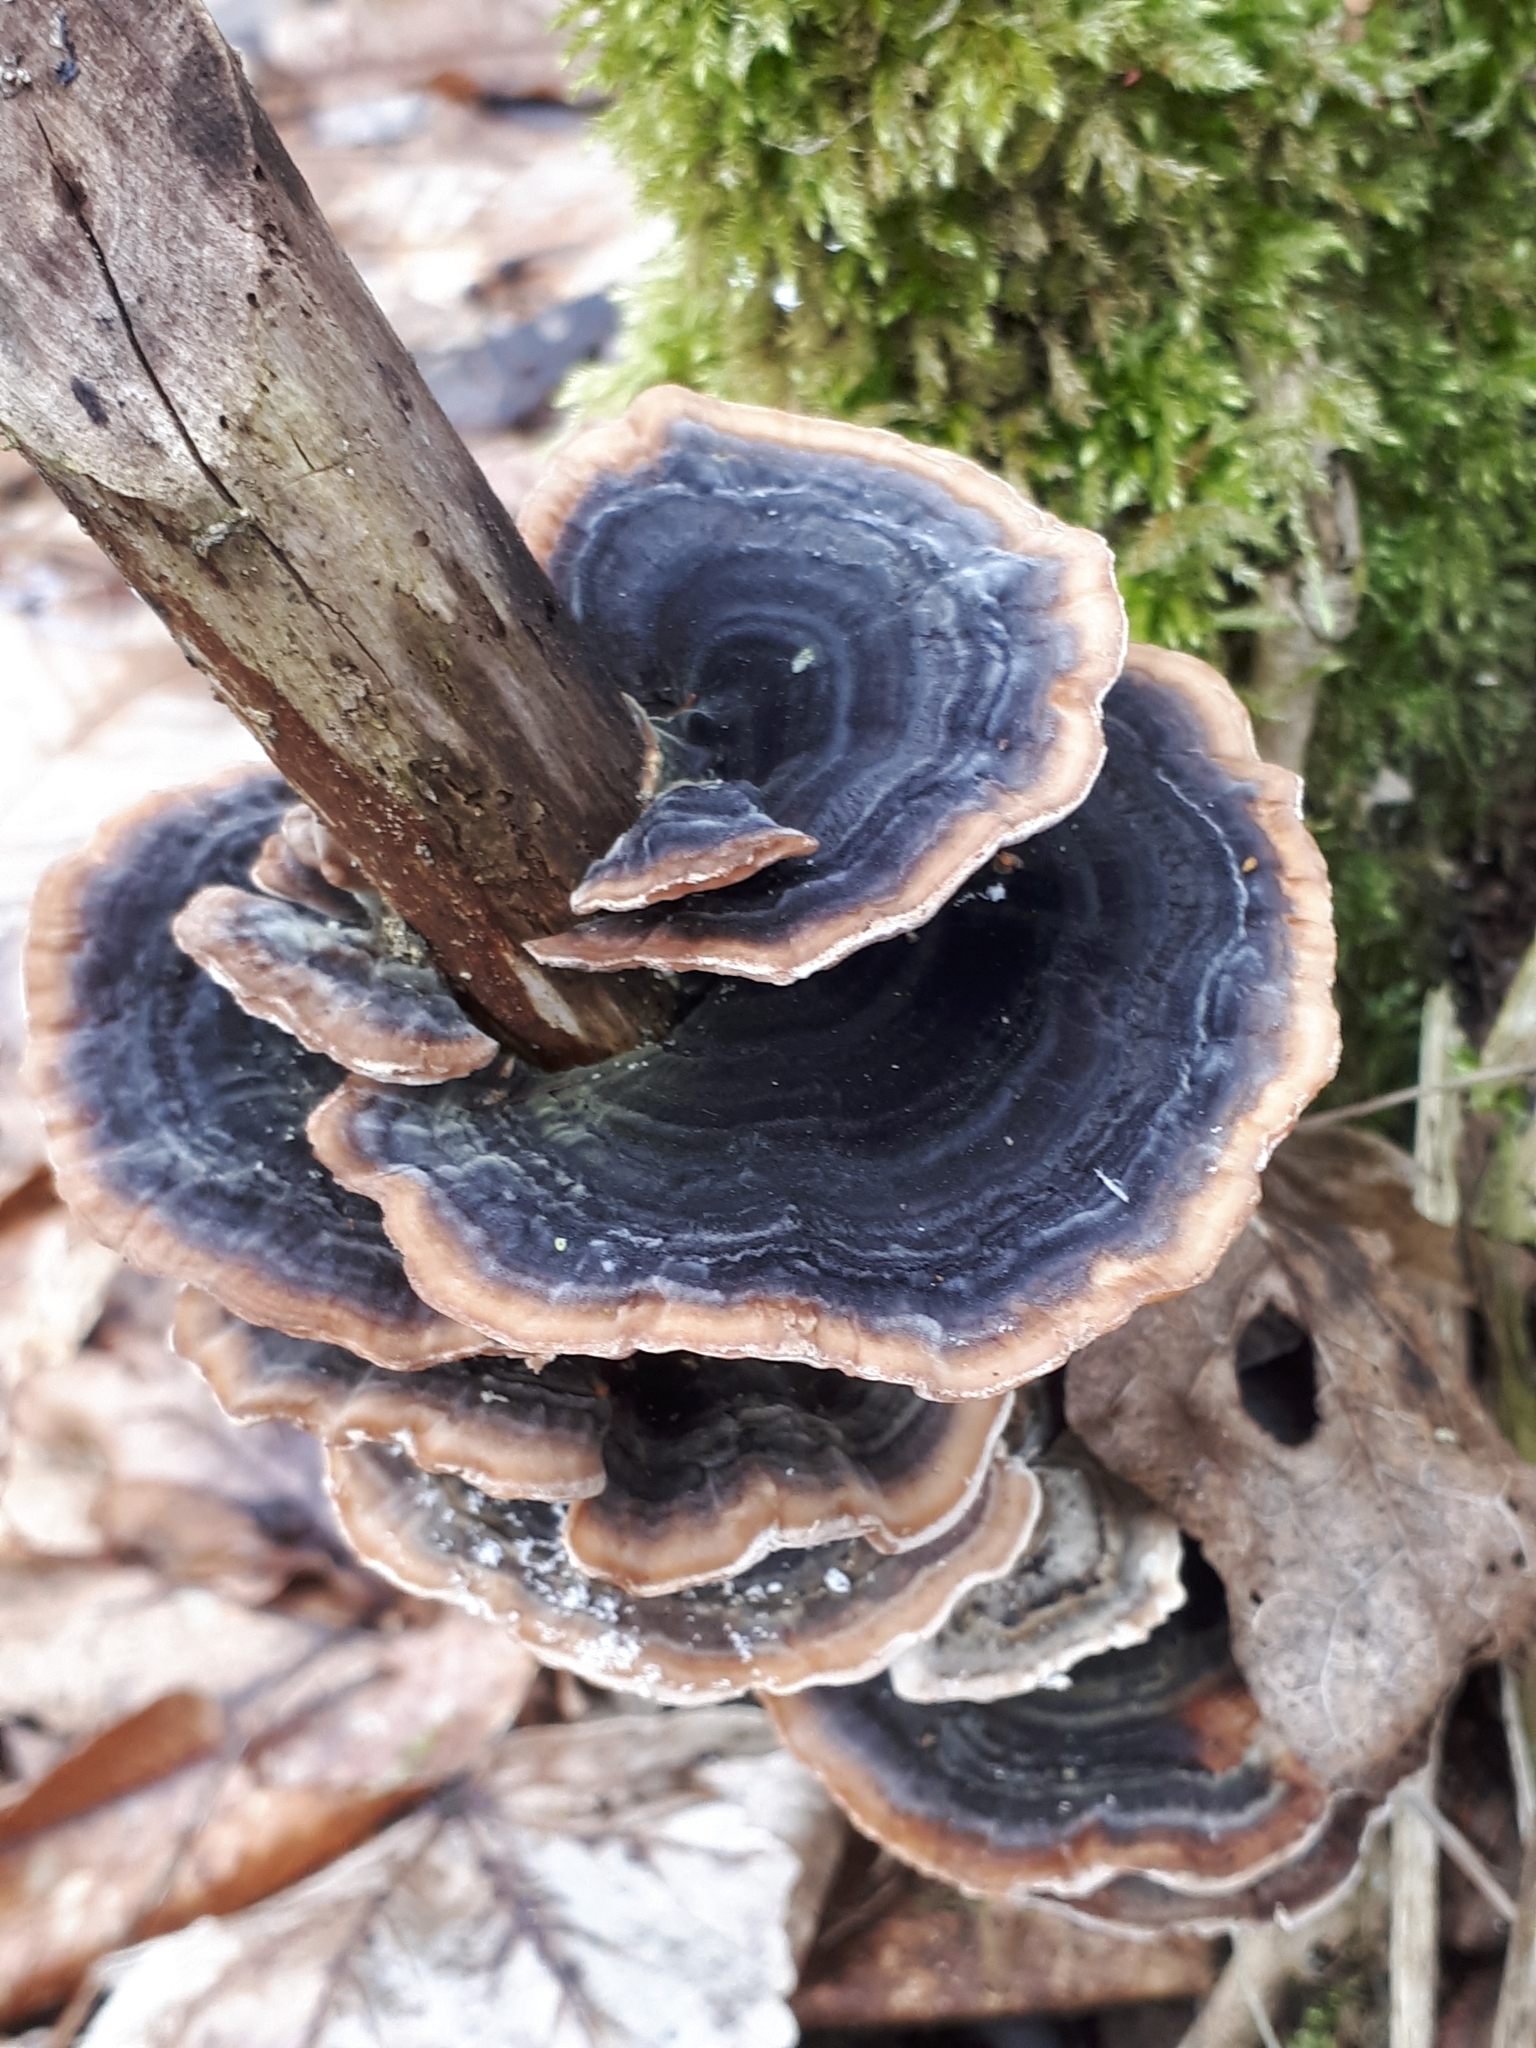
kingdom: Fungi
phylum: Basidiomycota
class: Agaricomycetes
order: Polyporales
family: Polyporaceae
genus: Trametes
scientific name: Trametes versicolor
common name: Turkeytail
